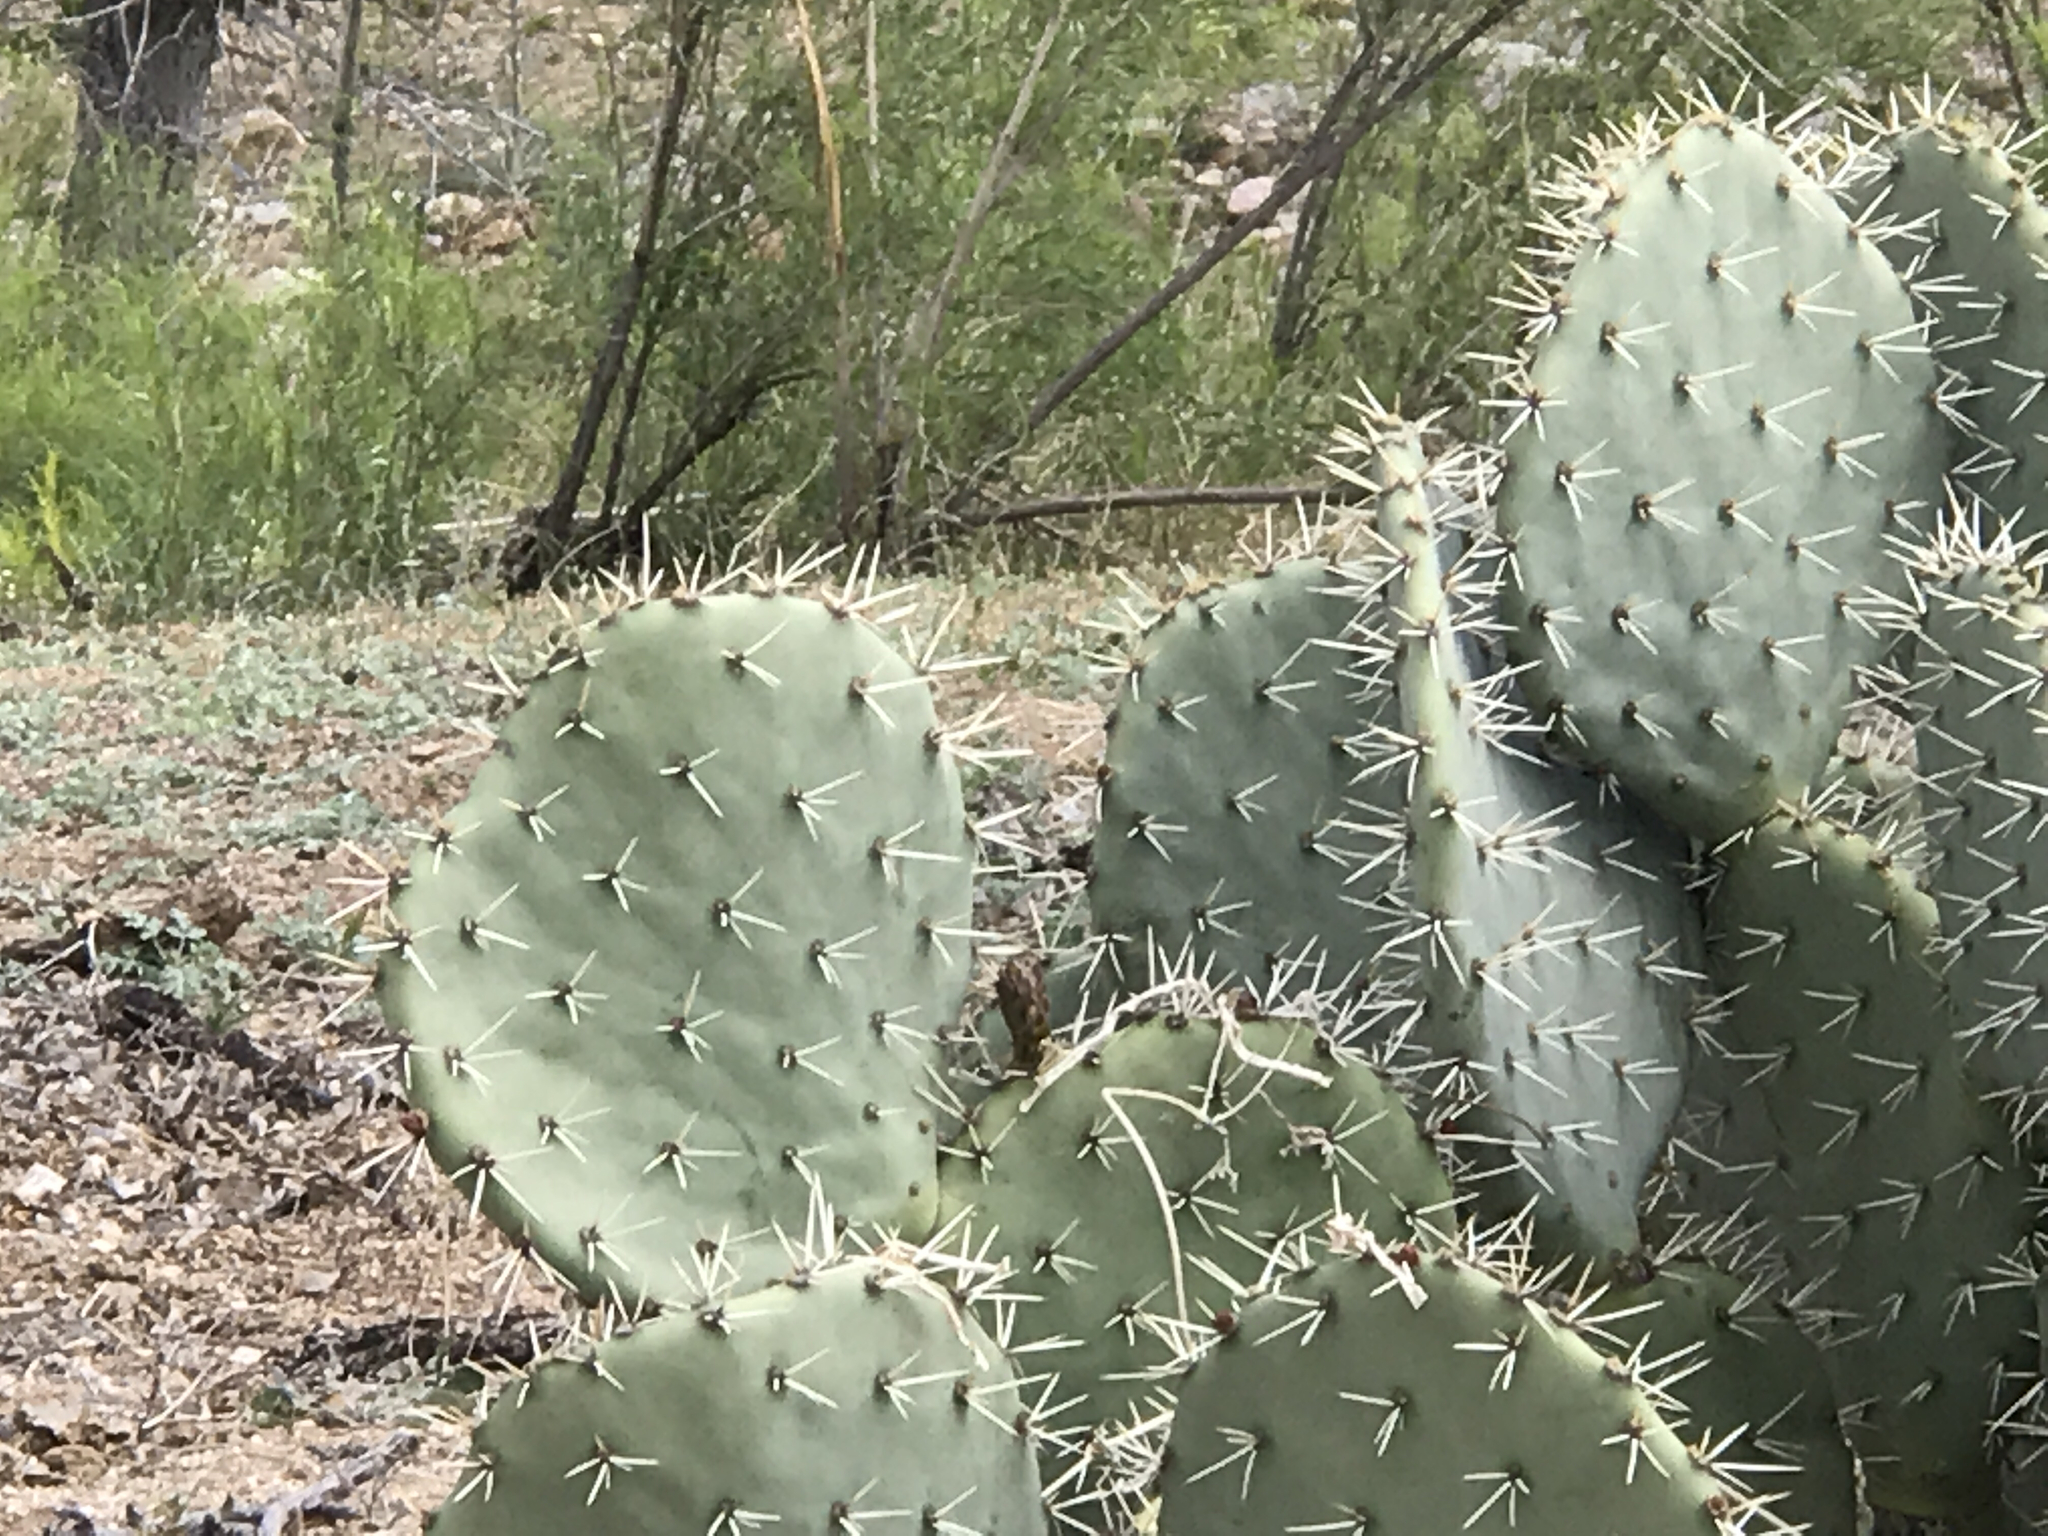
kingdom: Plantae
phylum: Tracheophyta
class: Magnoliopsida
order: Caryophyllales
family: Cactaceae
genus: Opuntia
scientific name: Opuntia engelmannii
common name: Cactus-apple
